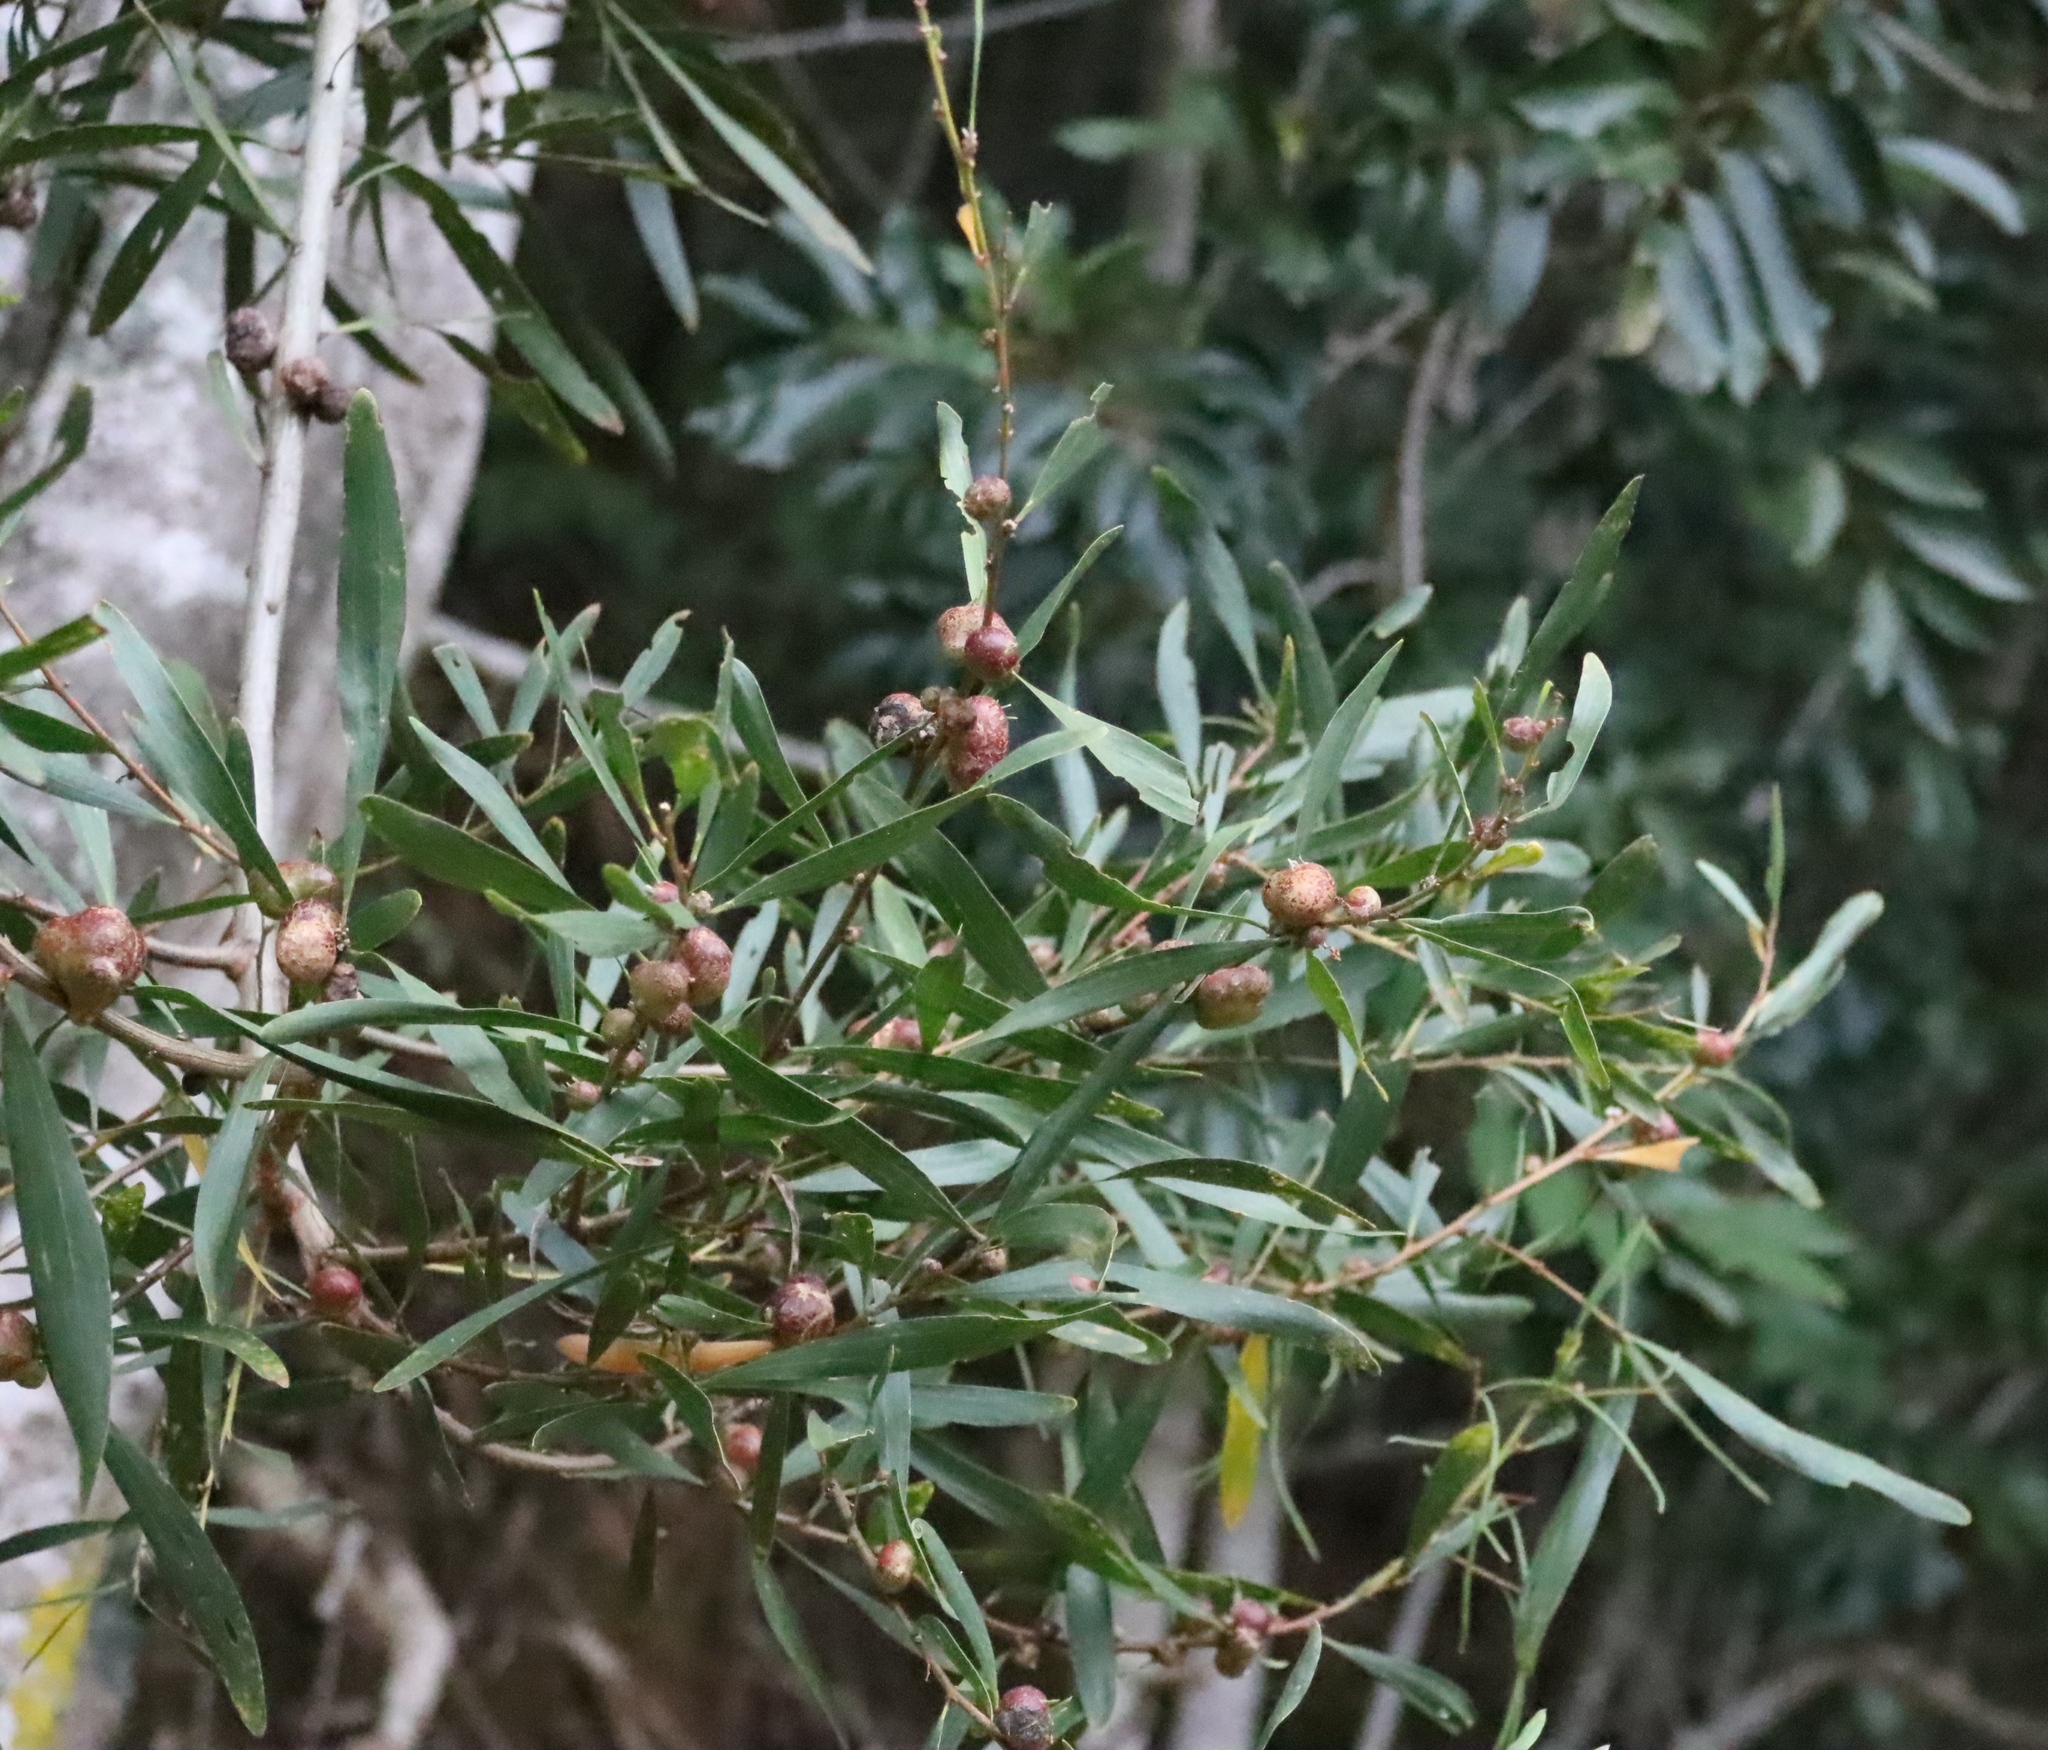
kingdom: Animalia
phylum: Arthropoda
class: Insecta
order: Hymenoptera
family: Pteromalidae
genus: Trichilogaster
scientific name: Trichilogaster acaciaelongifoliae
